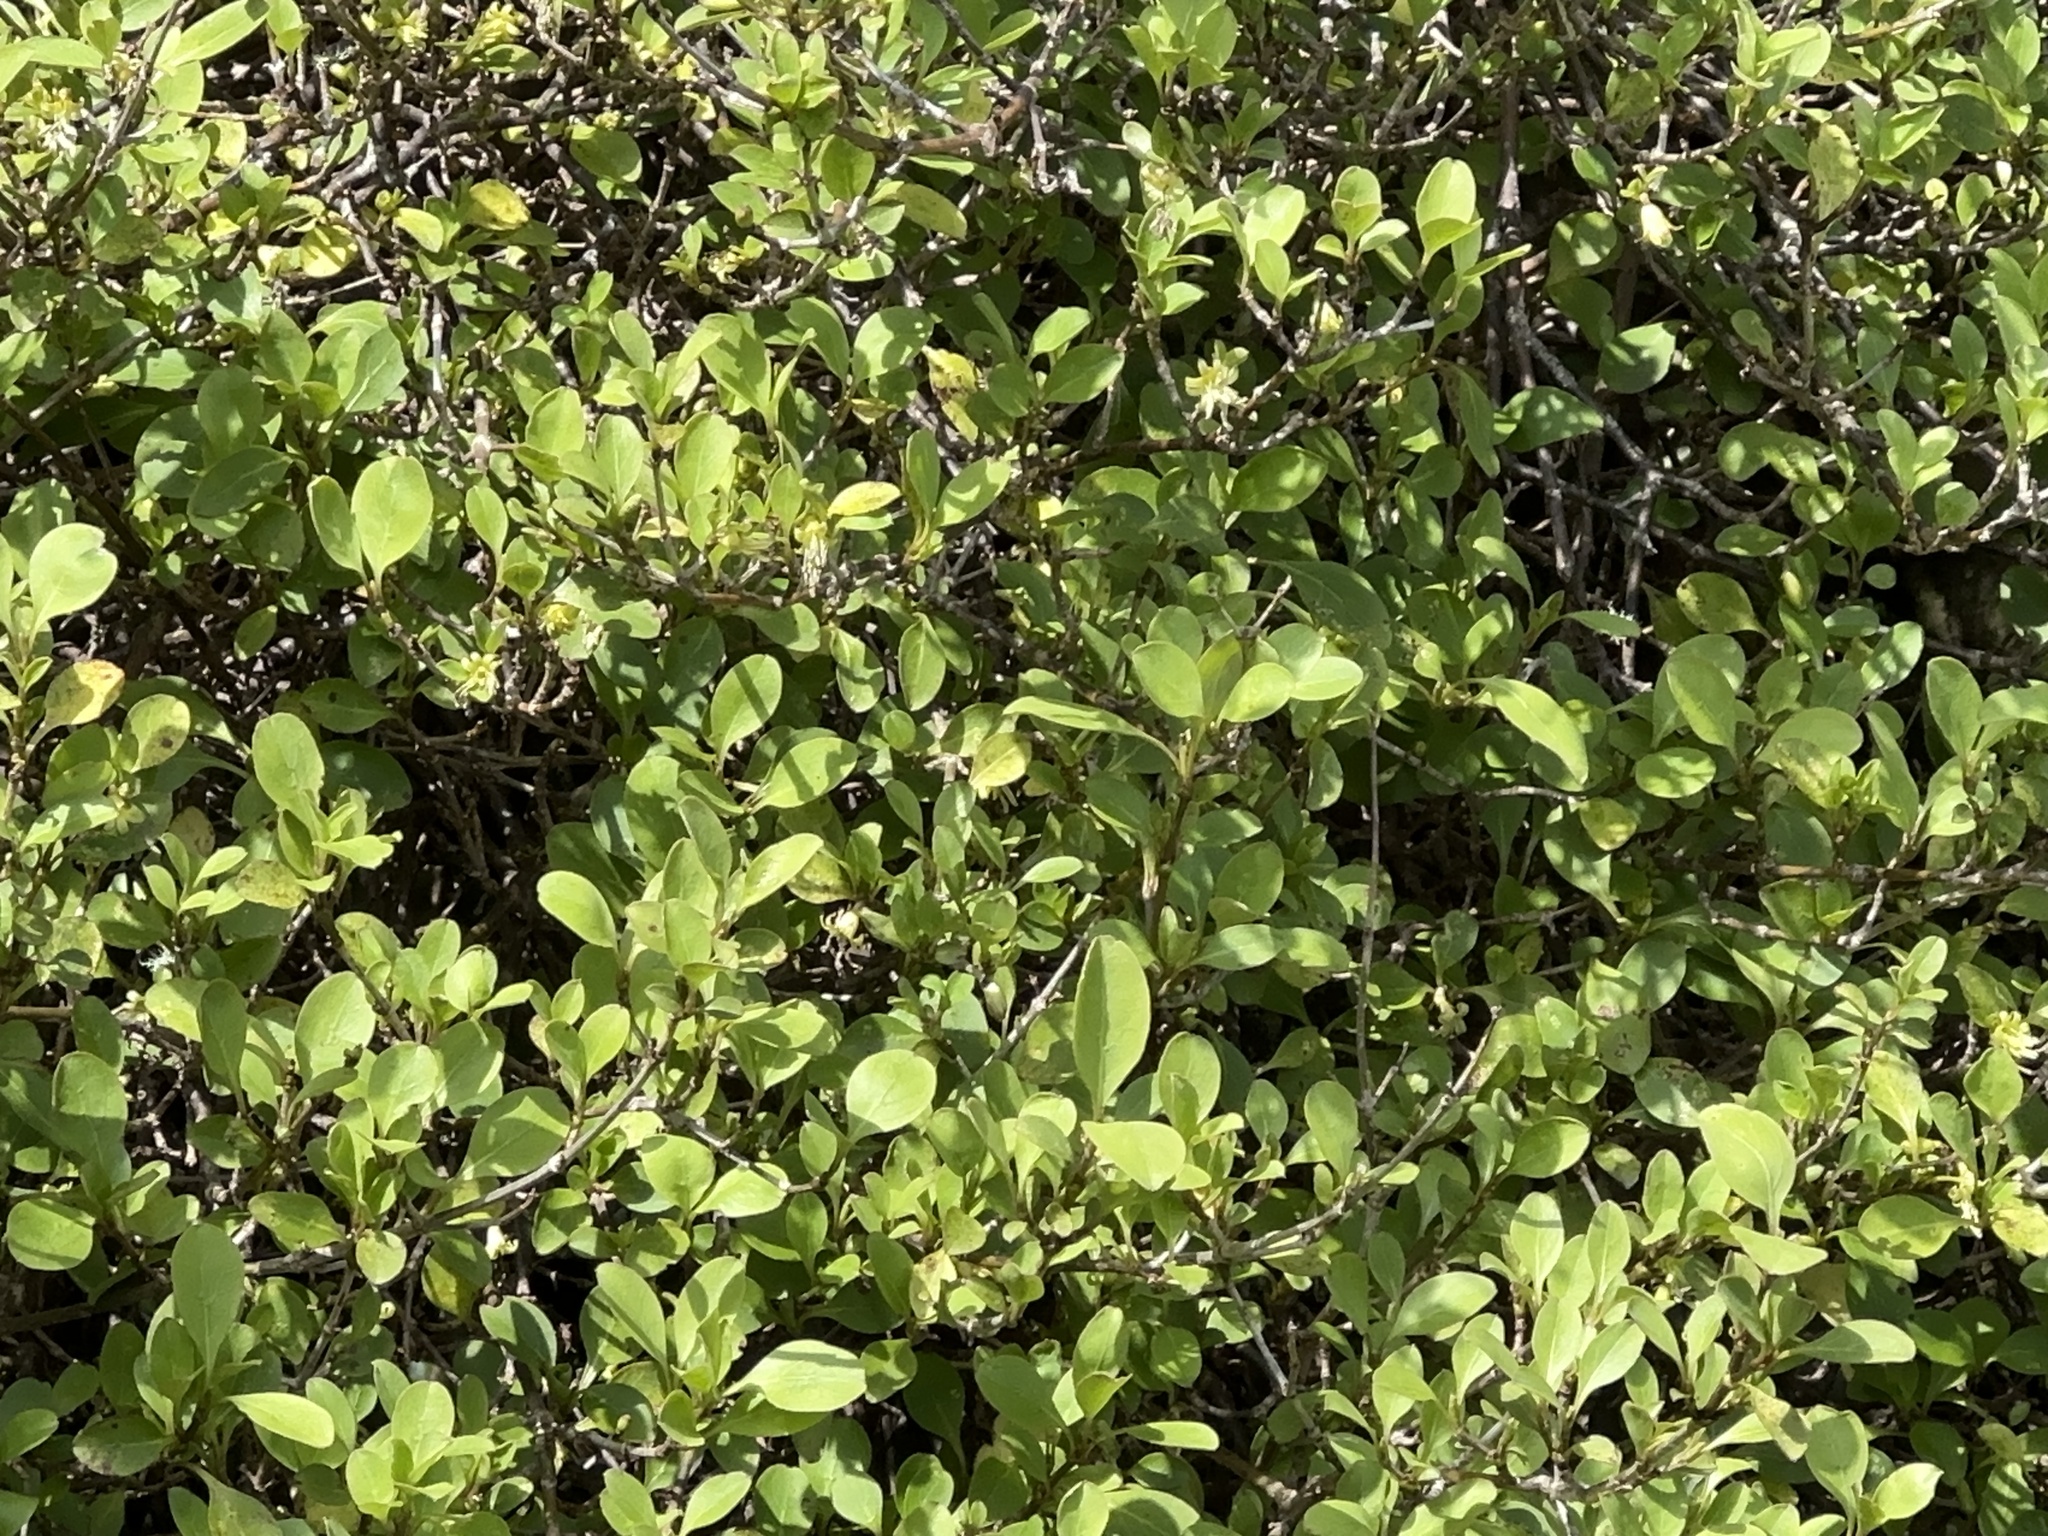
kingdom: Plantae
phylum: Tracheophyta
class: Magnoliopsida
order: Gentianales
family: Rubiaceae
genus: Coprosma
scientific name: Coprosma foetidissima
